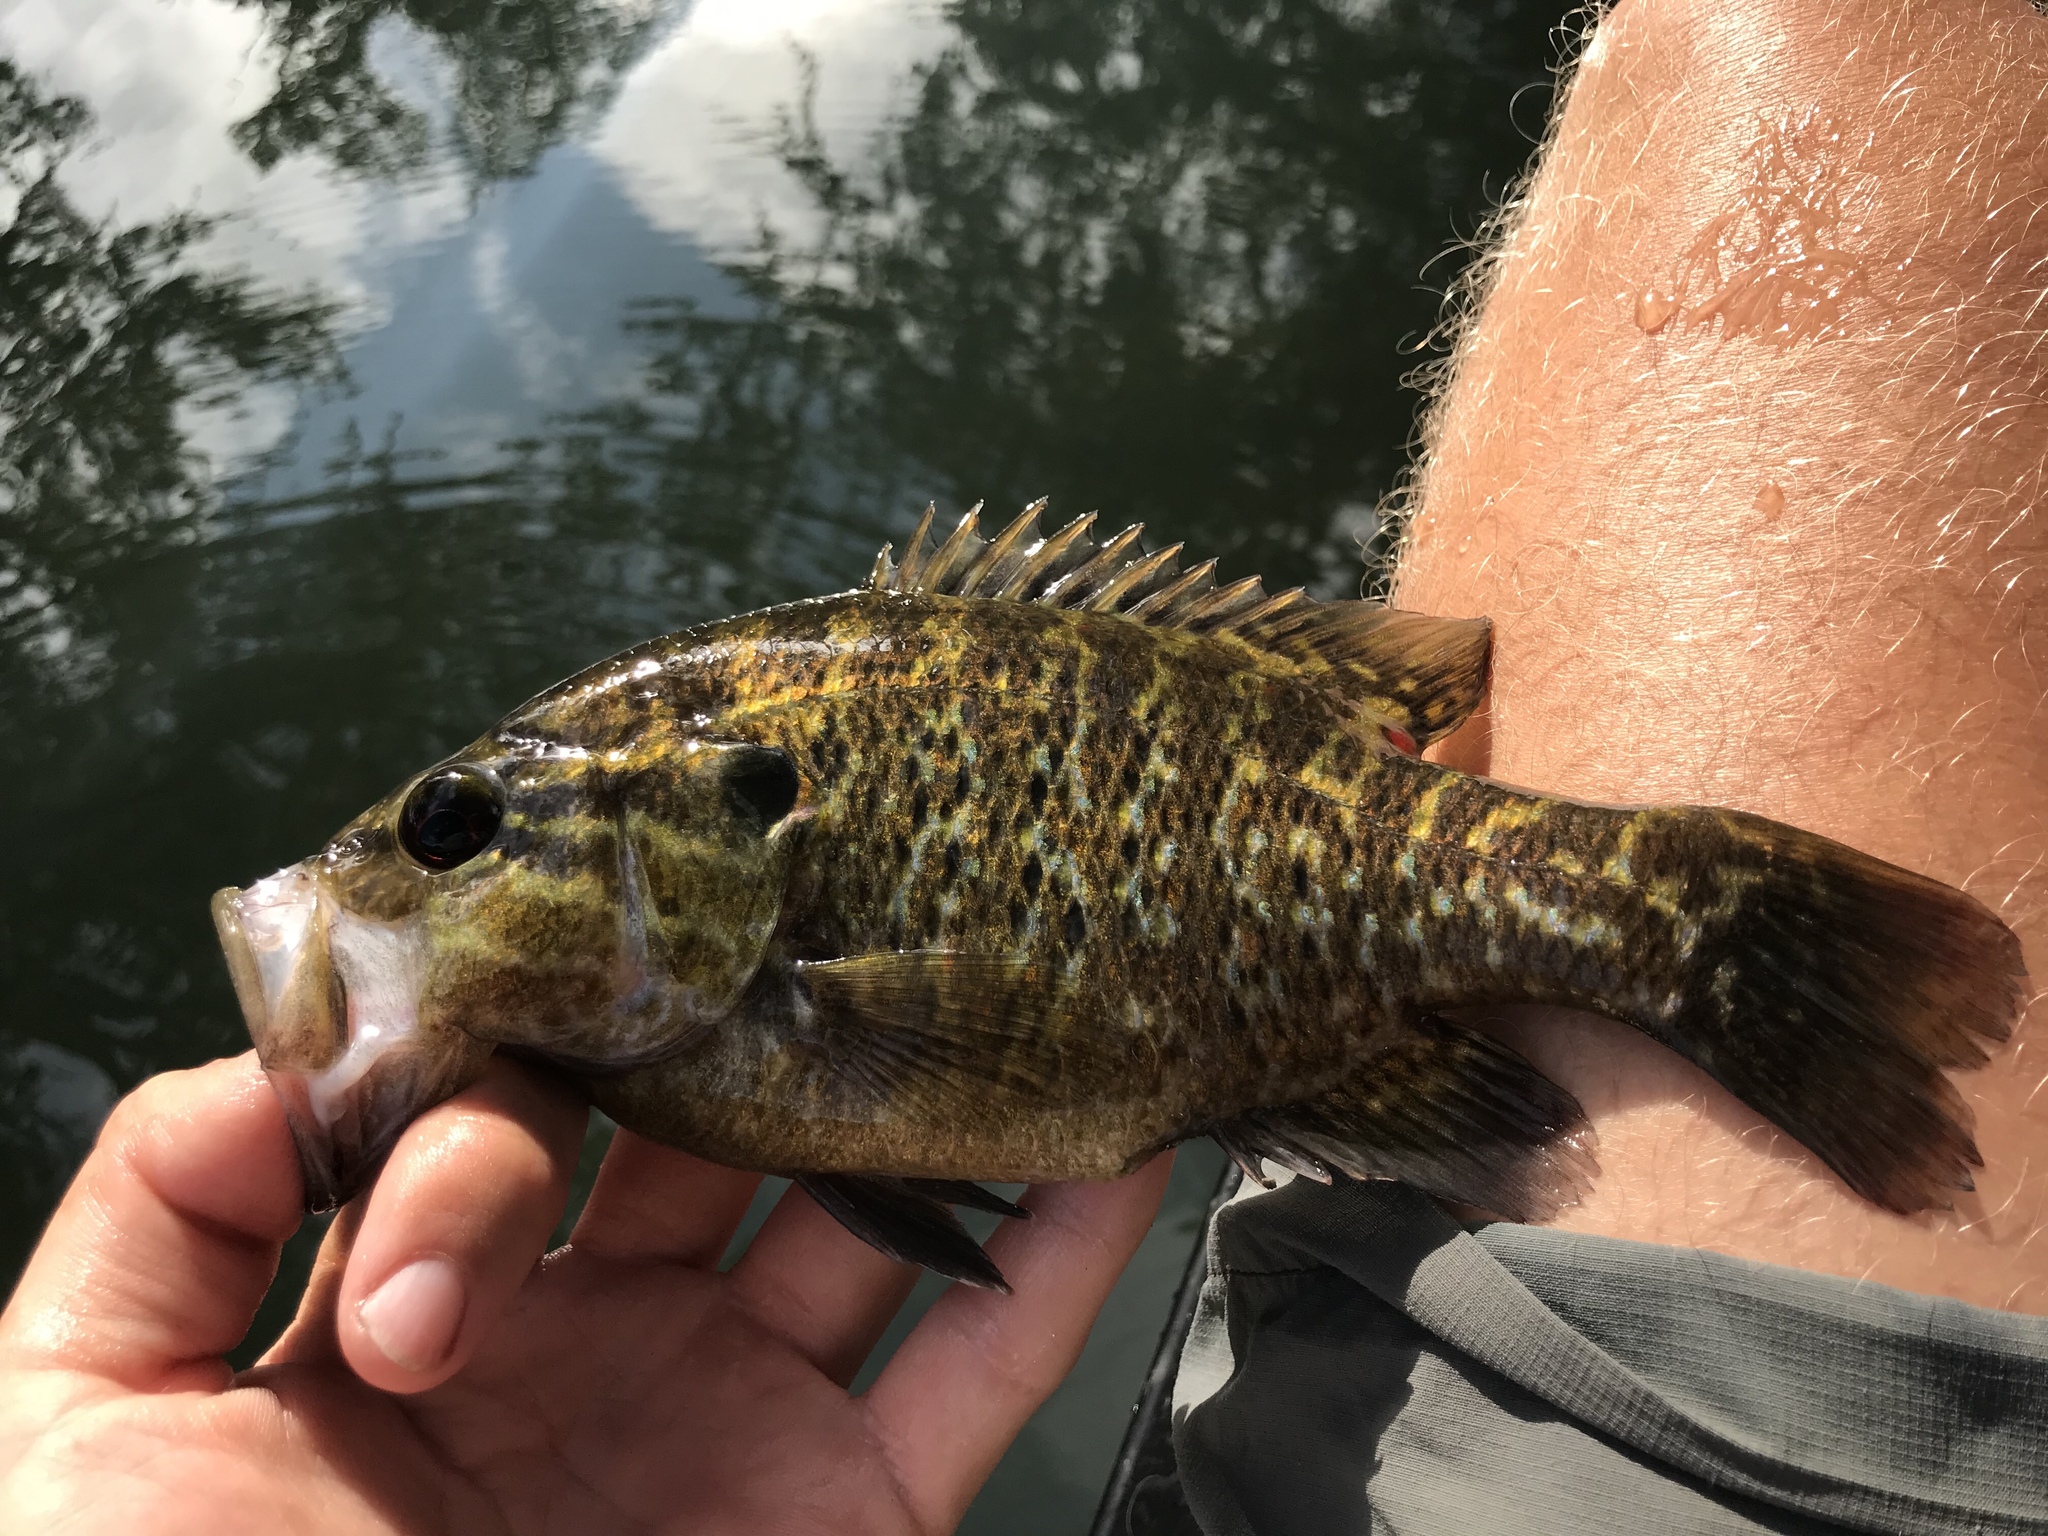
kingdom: Animalia
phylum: Chordata
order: Perciformes
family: Centrarchidae
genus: Lepomis
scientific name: Lepomis gulosus
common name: Warmouth
